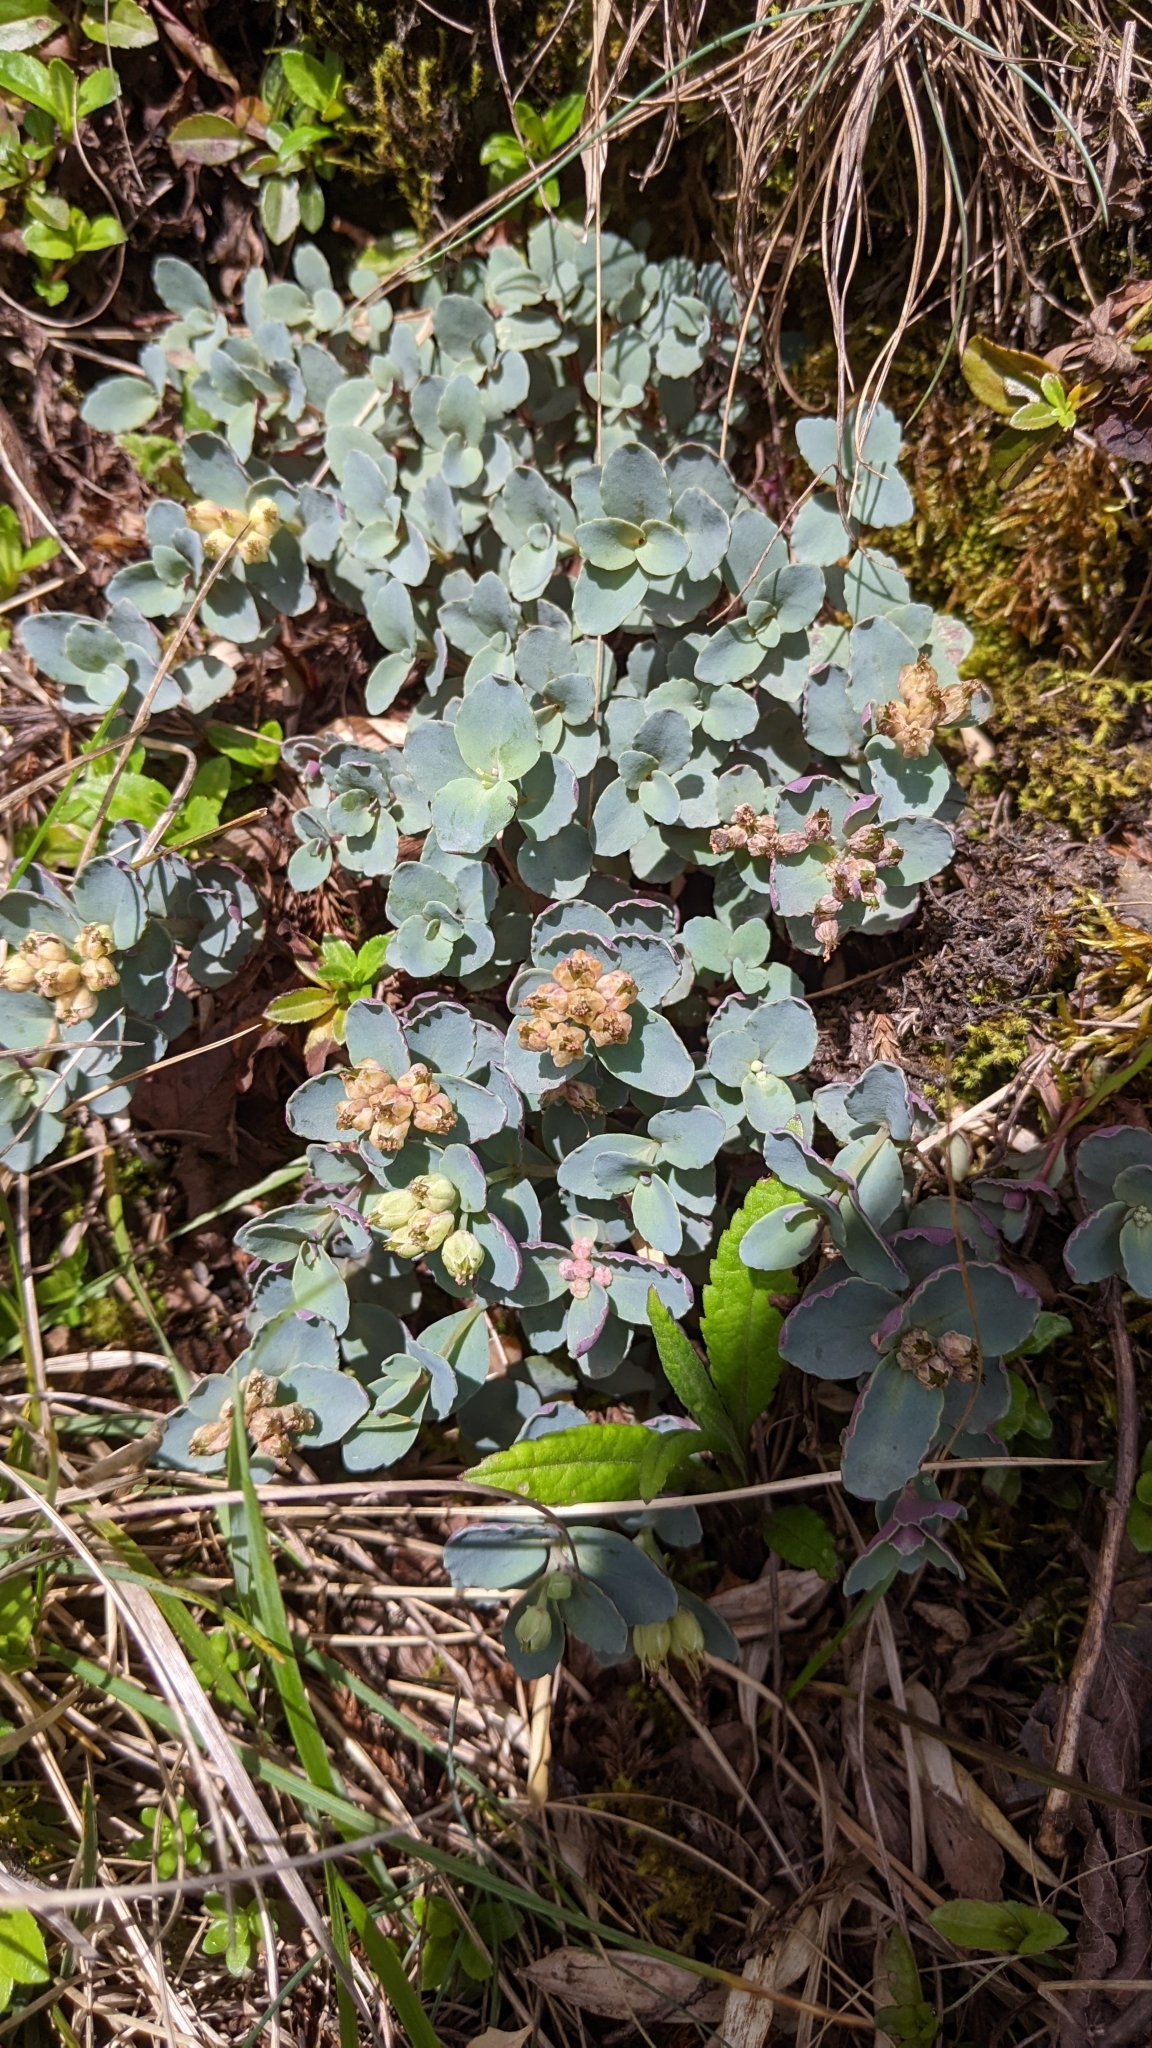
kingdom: Plantae
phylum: Tracheophyta
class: Magnoliopsida
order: Saxifragales
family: Crassulaceae
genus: Phedimus
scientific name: Phedimus subcapitatus
